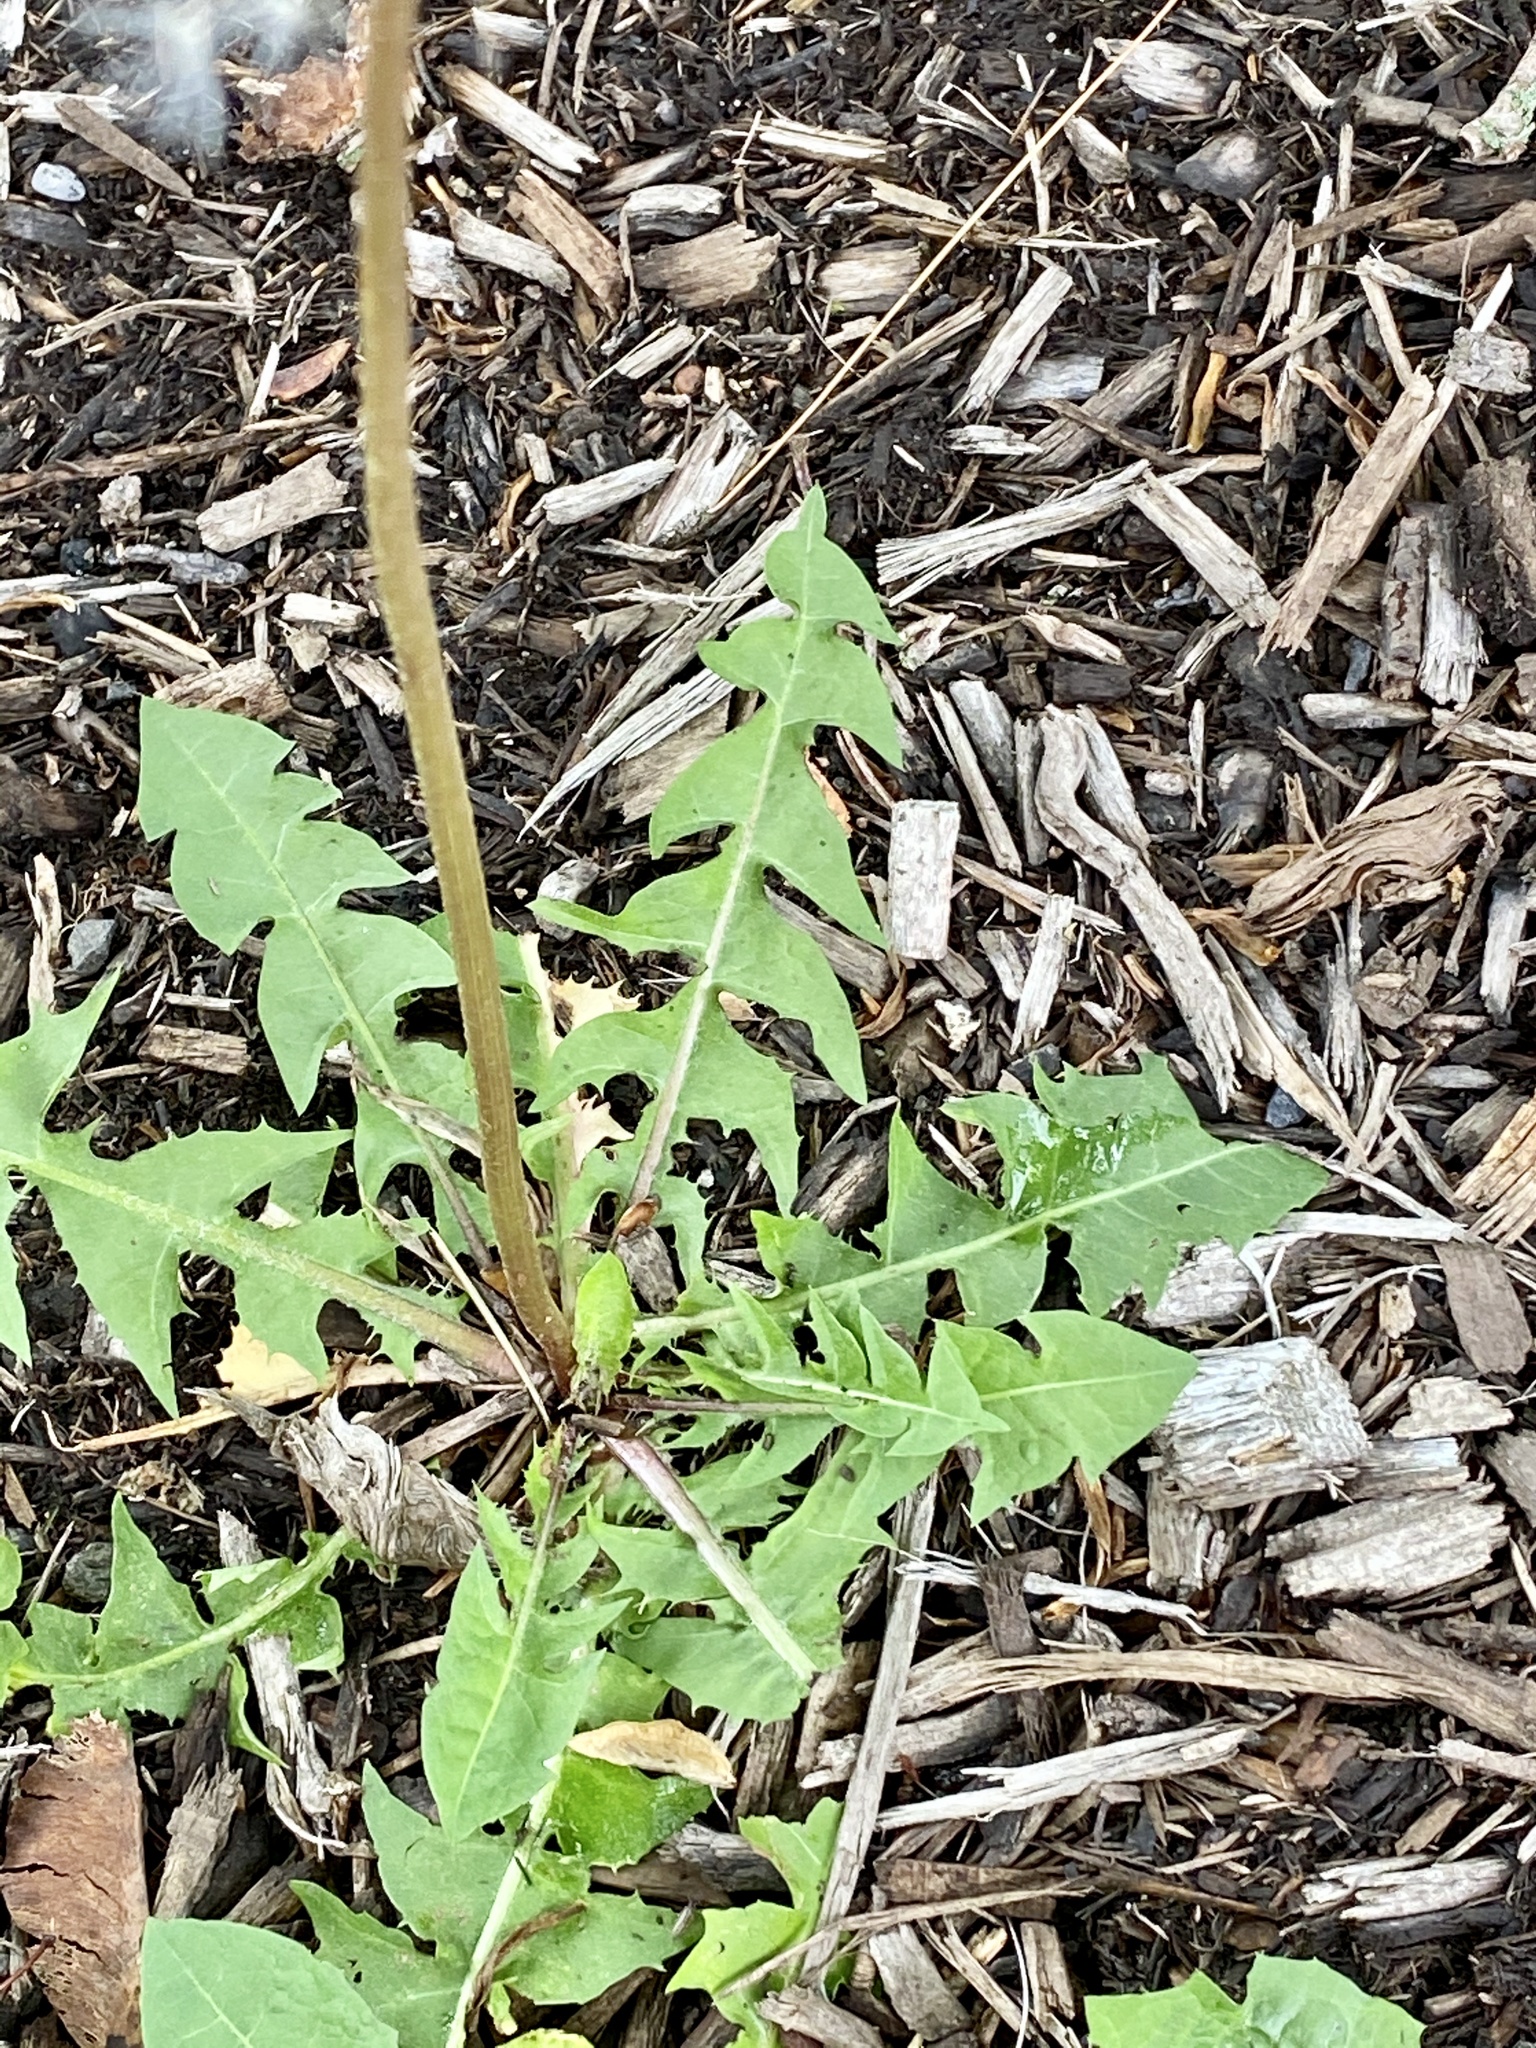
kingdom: Plantae
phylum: Tracheophyta
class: Magnoliopsida
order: Asterales
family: Asteraceae
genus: Taraxacum
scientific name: Taraxacum officinale
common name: Common dandelion
